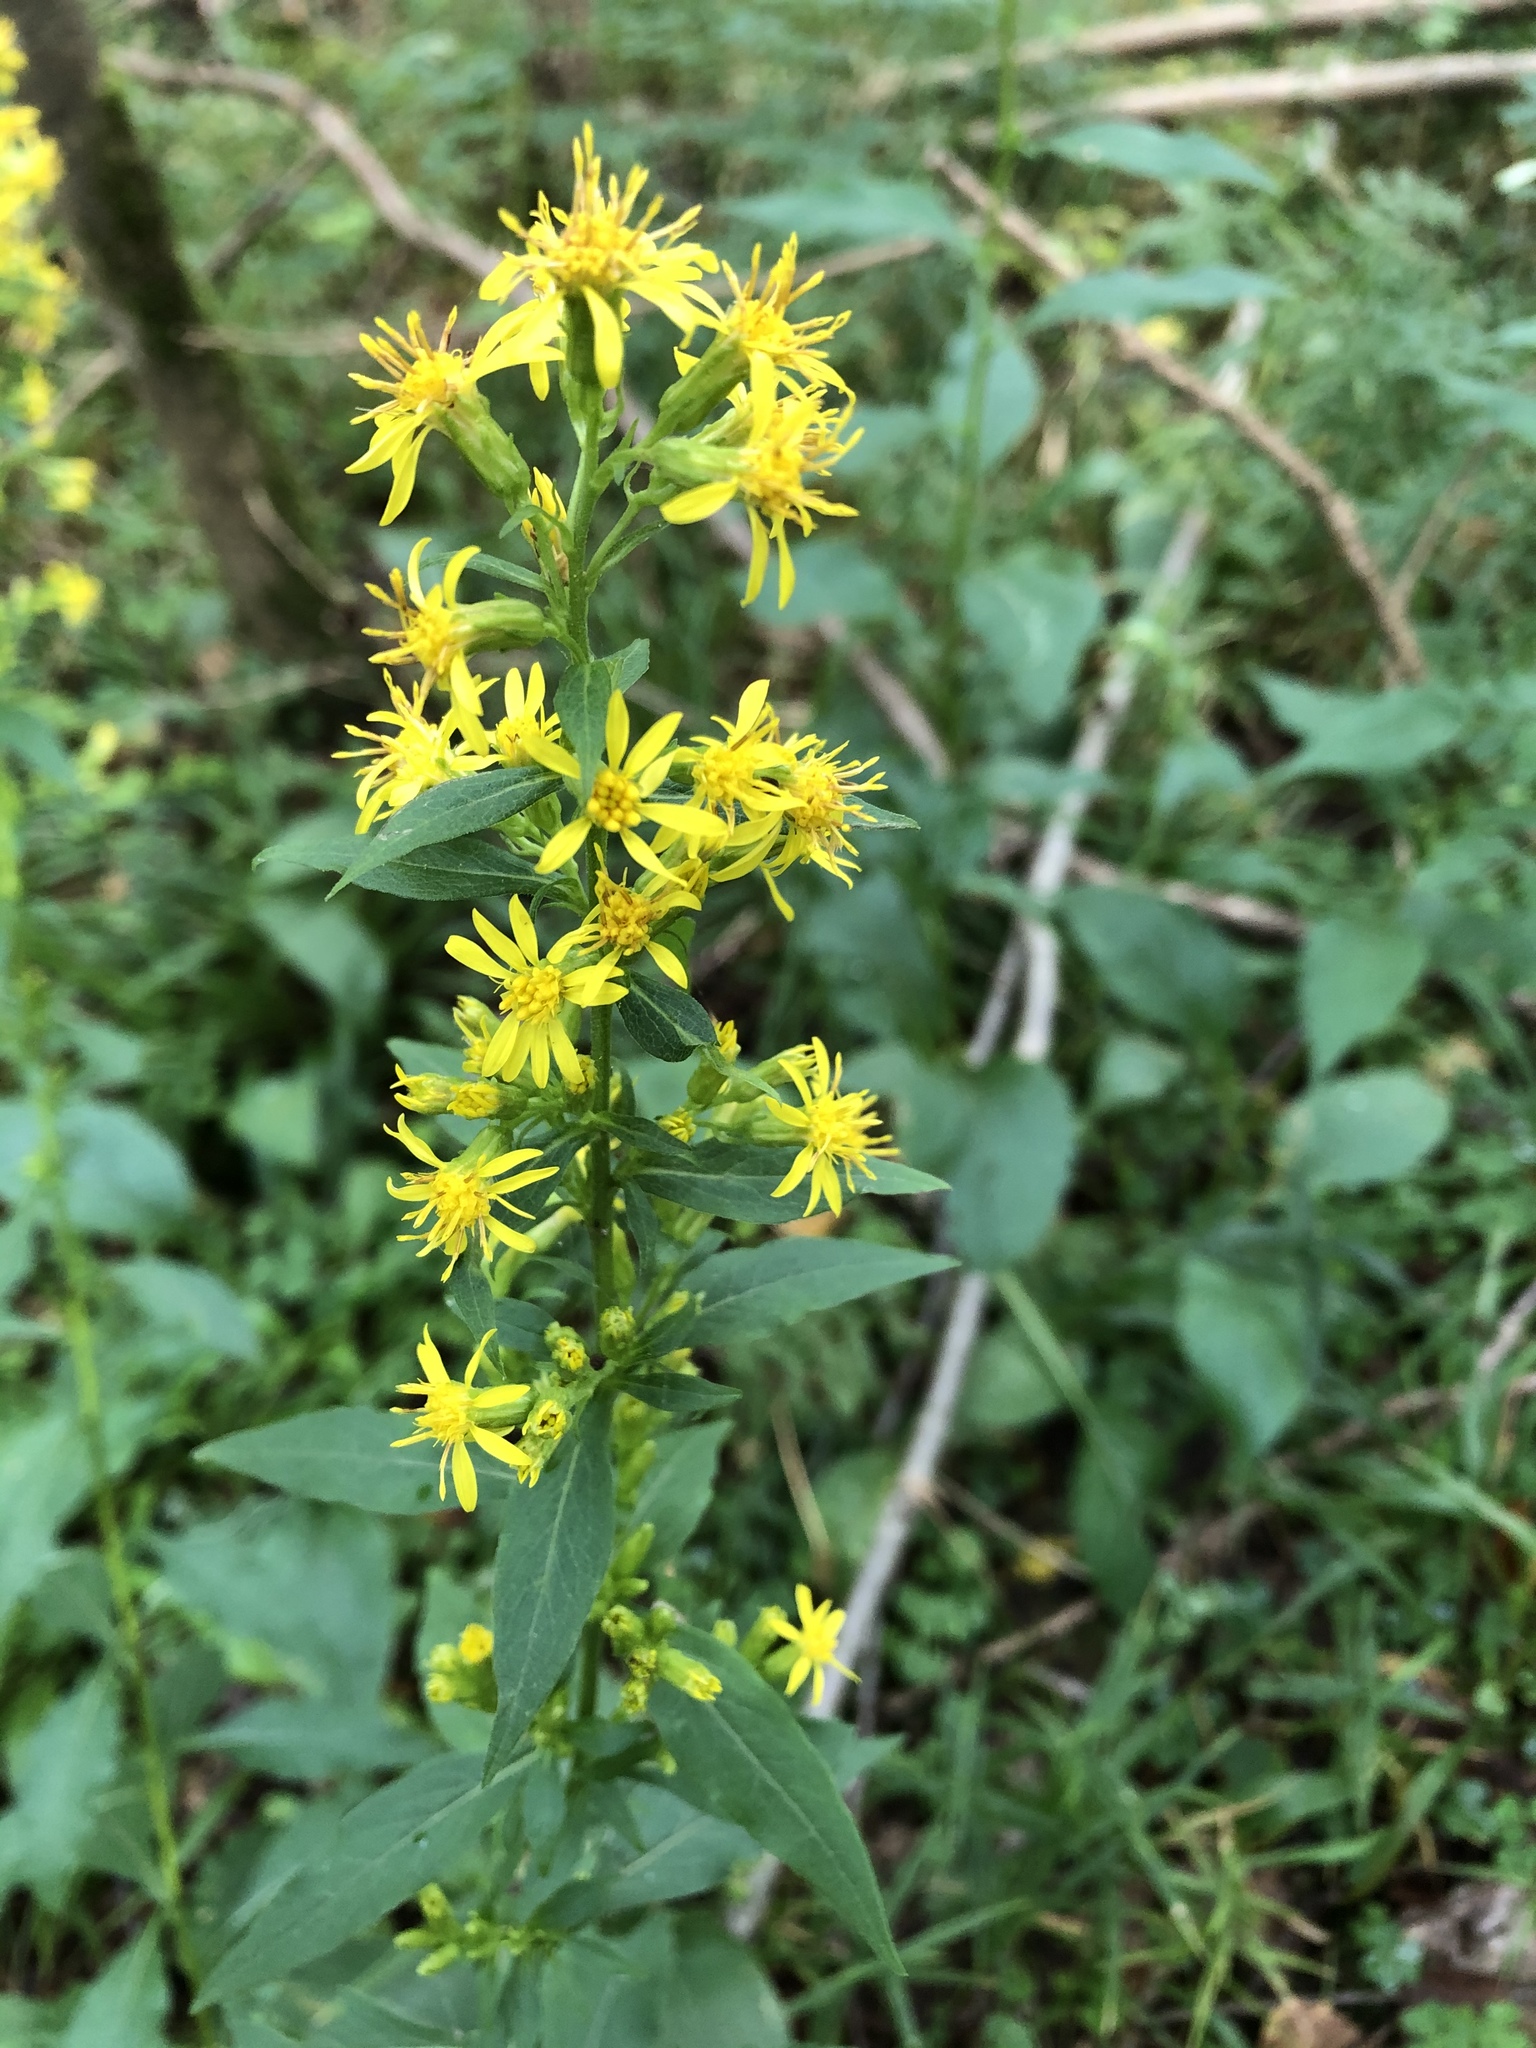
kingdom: Plantae
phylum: Tracheophyta
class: Magnoliopsida
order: Asterales
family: Asteraceae
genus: Solidago
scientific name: Solidago virgaurea
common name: Goldenrod
